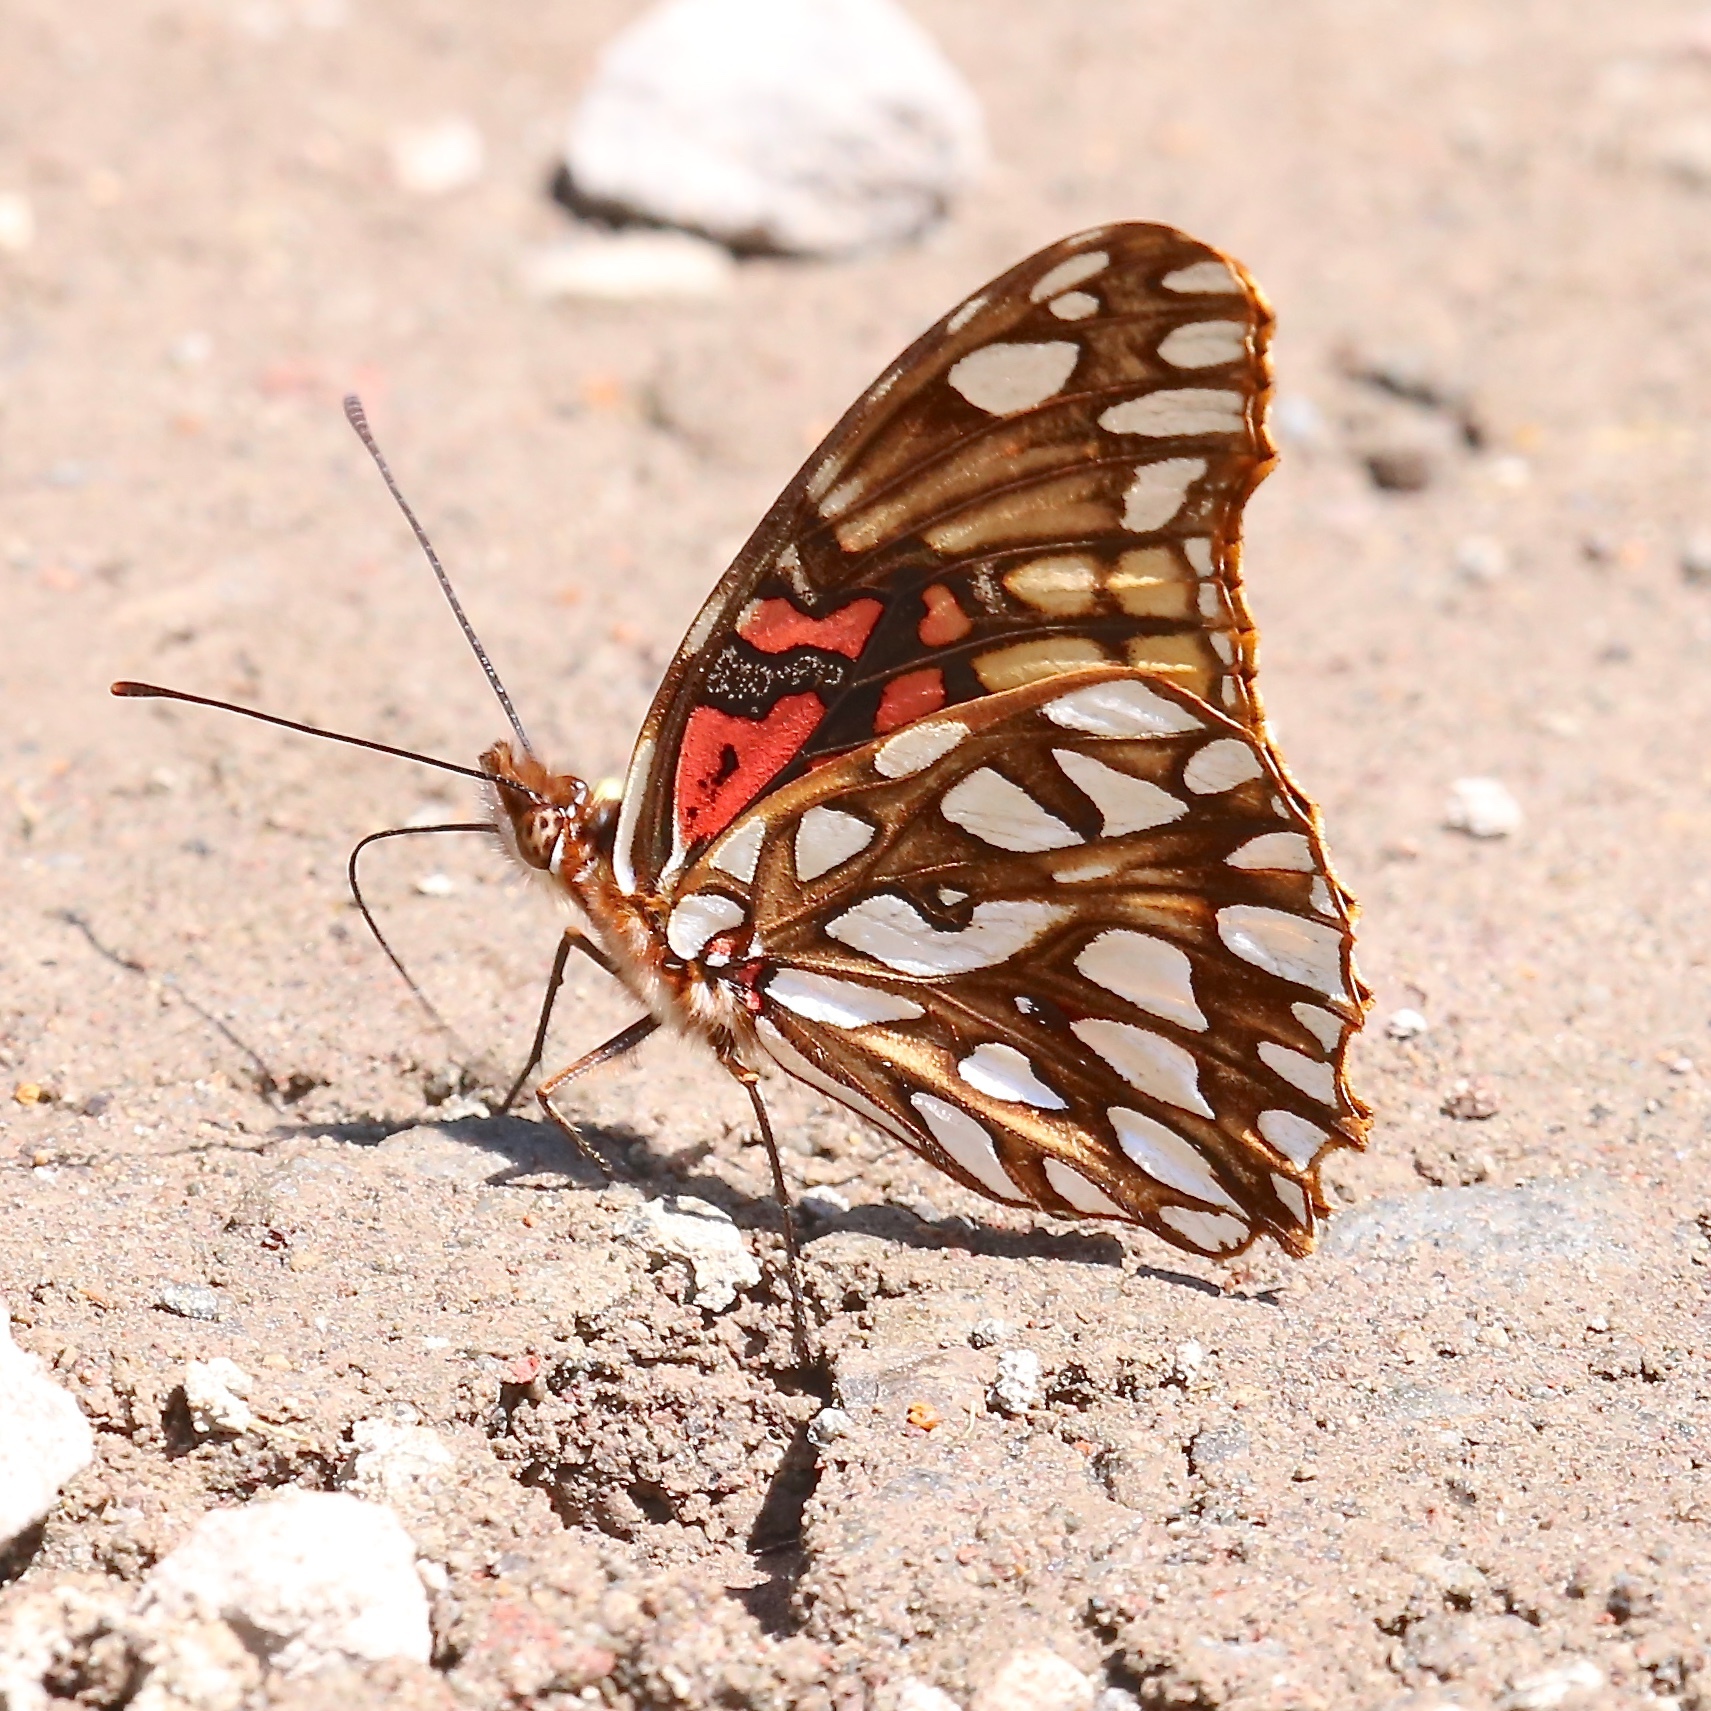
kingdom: Animalia
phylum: Arthropoda
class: Insecta
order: Lepidoptera
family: Nymphalidae
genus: Dione
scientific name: Dione moneta
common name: Mexican silverspot
